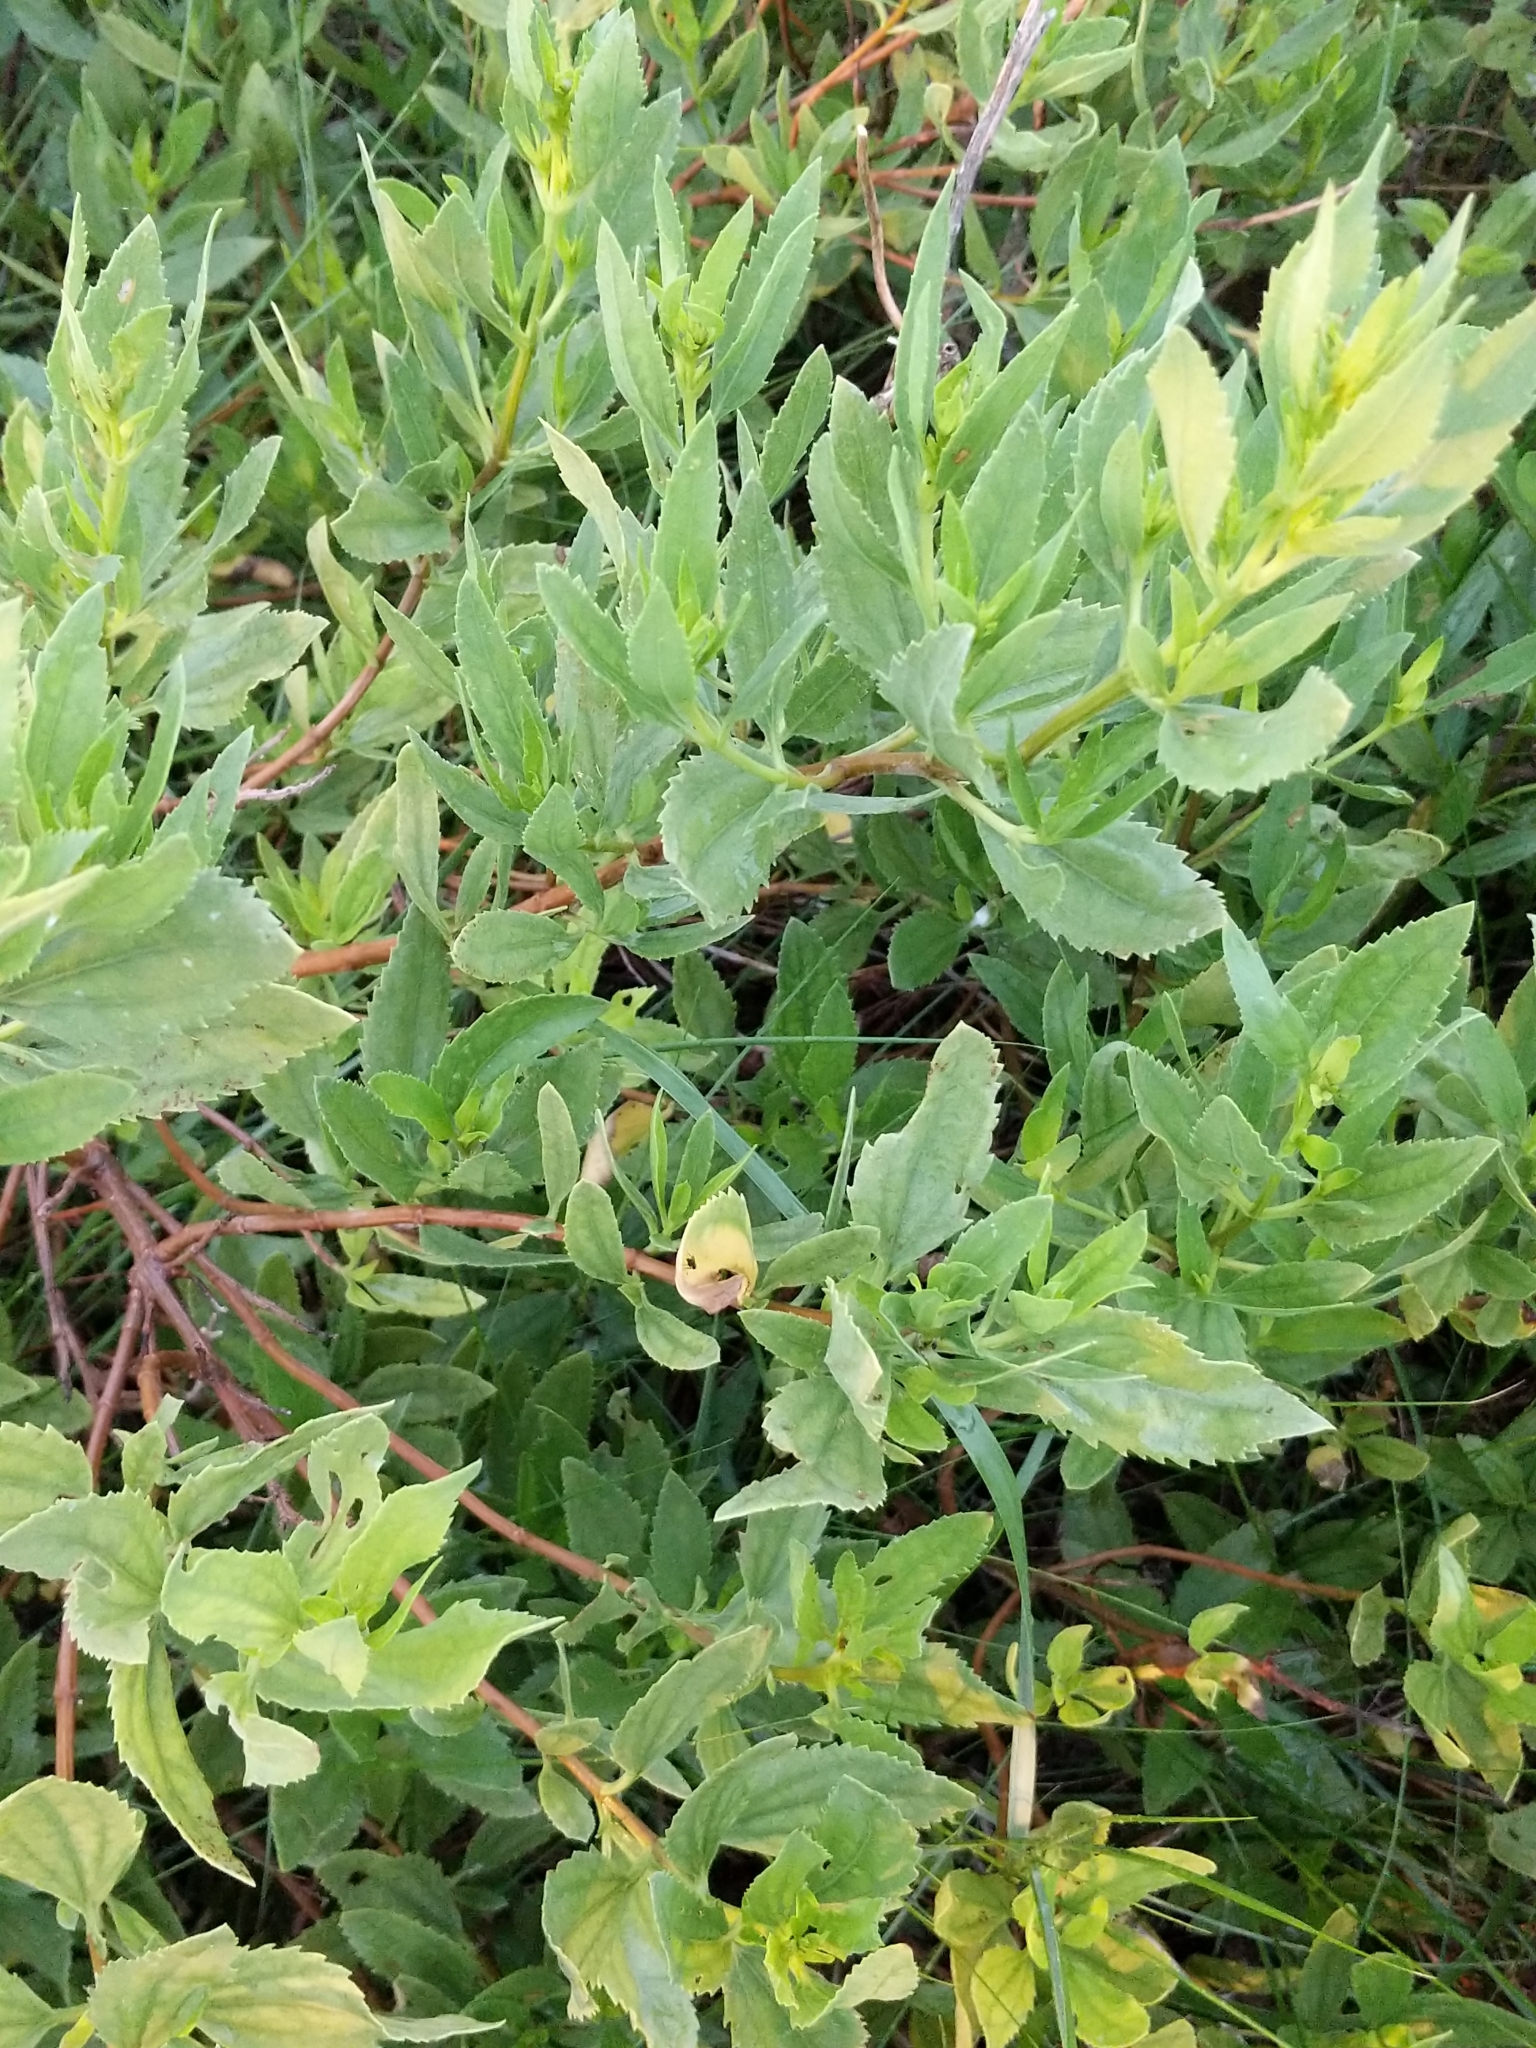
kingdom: Plantae
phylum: Tracheophyta
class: Magnoliopsida
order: Asterales
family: Asteraceae
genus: Iva
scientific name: Iva frutescens
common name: Big-leaved marsh-elder
